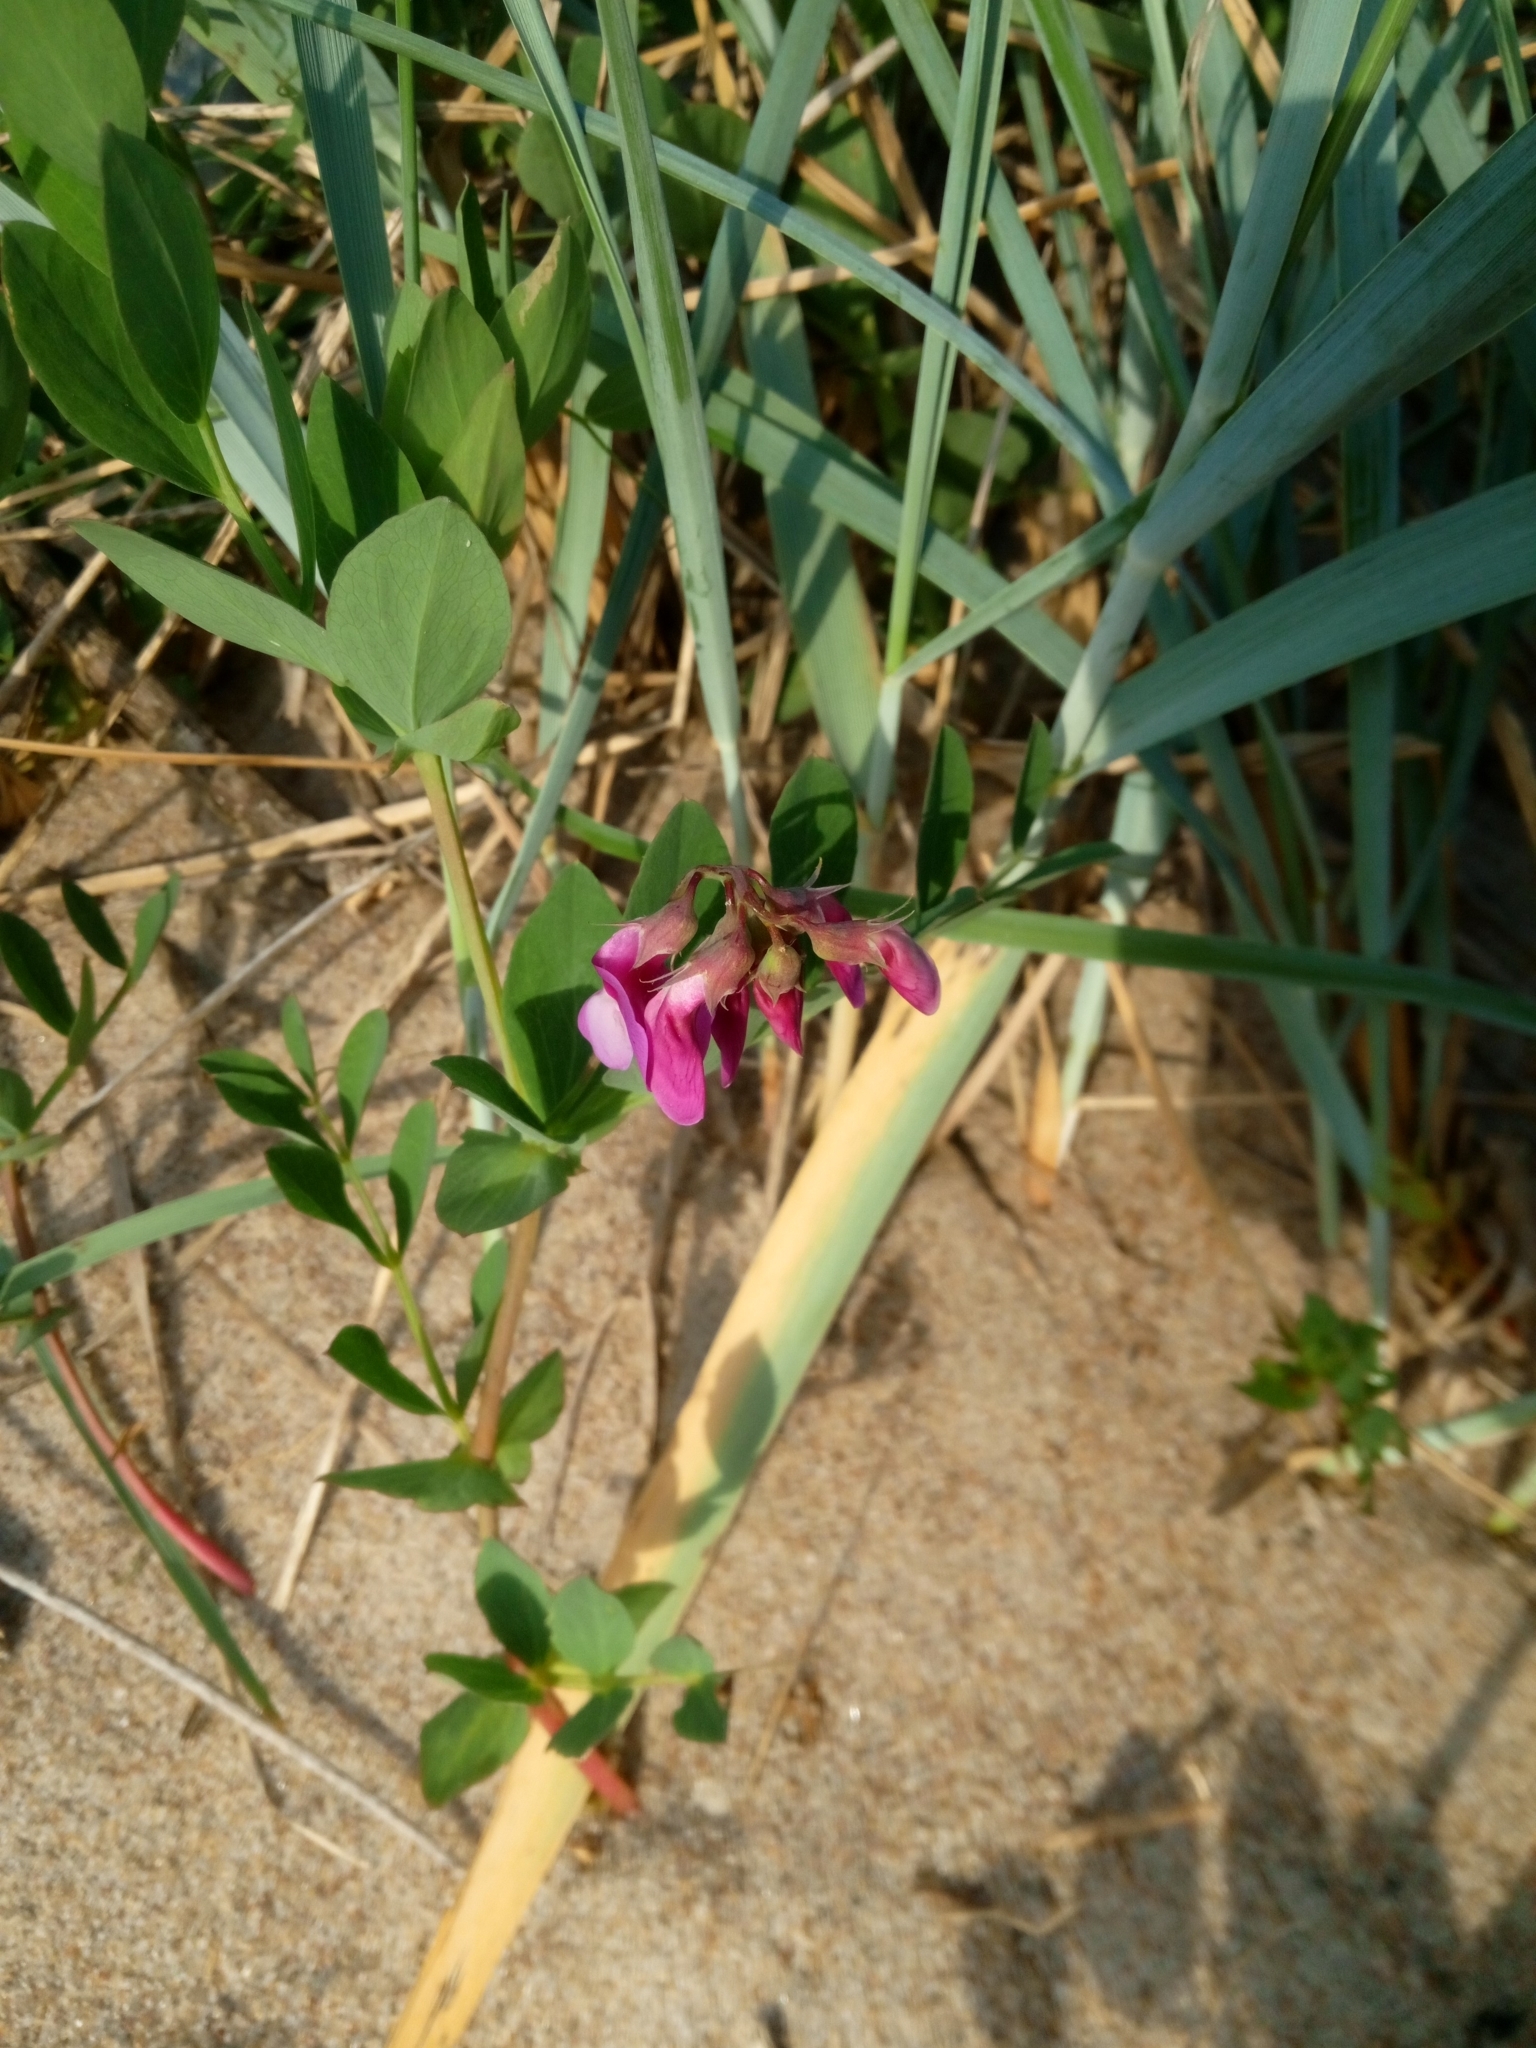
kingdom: Plantae
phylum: Tracheophyta
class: Magnoliopsida
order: Fabales
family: Fabaceae
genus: Lathyrus
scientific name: Lathyrus japonicus
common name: Sea pea
